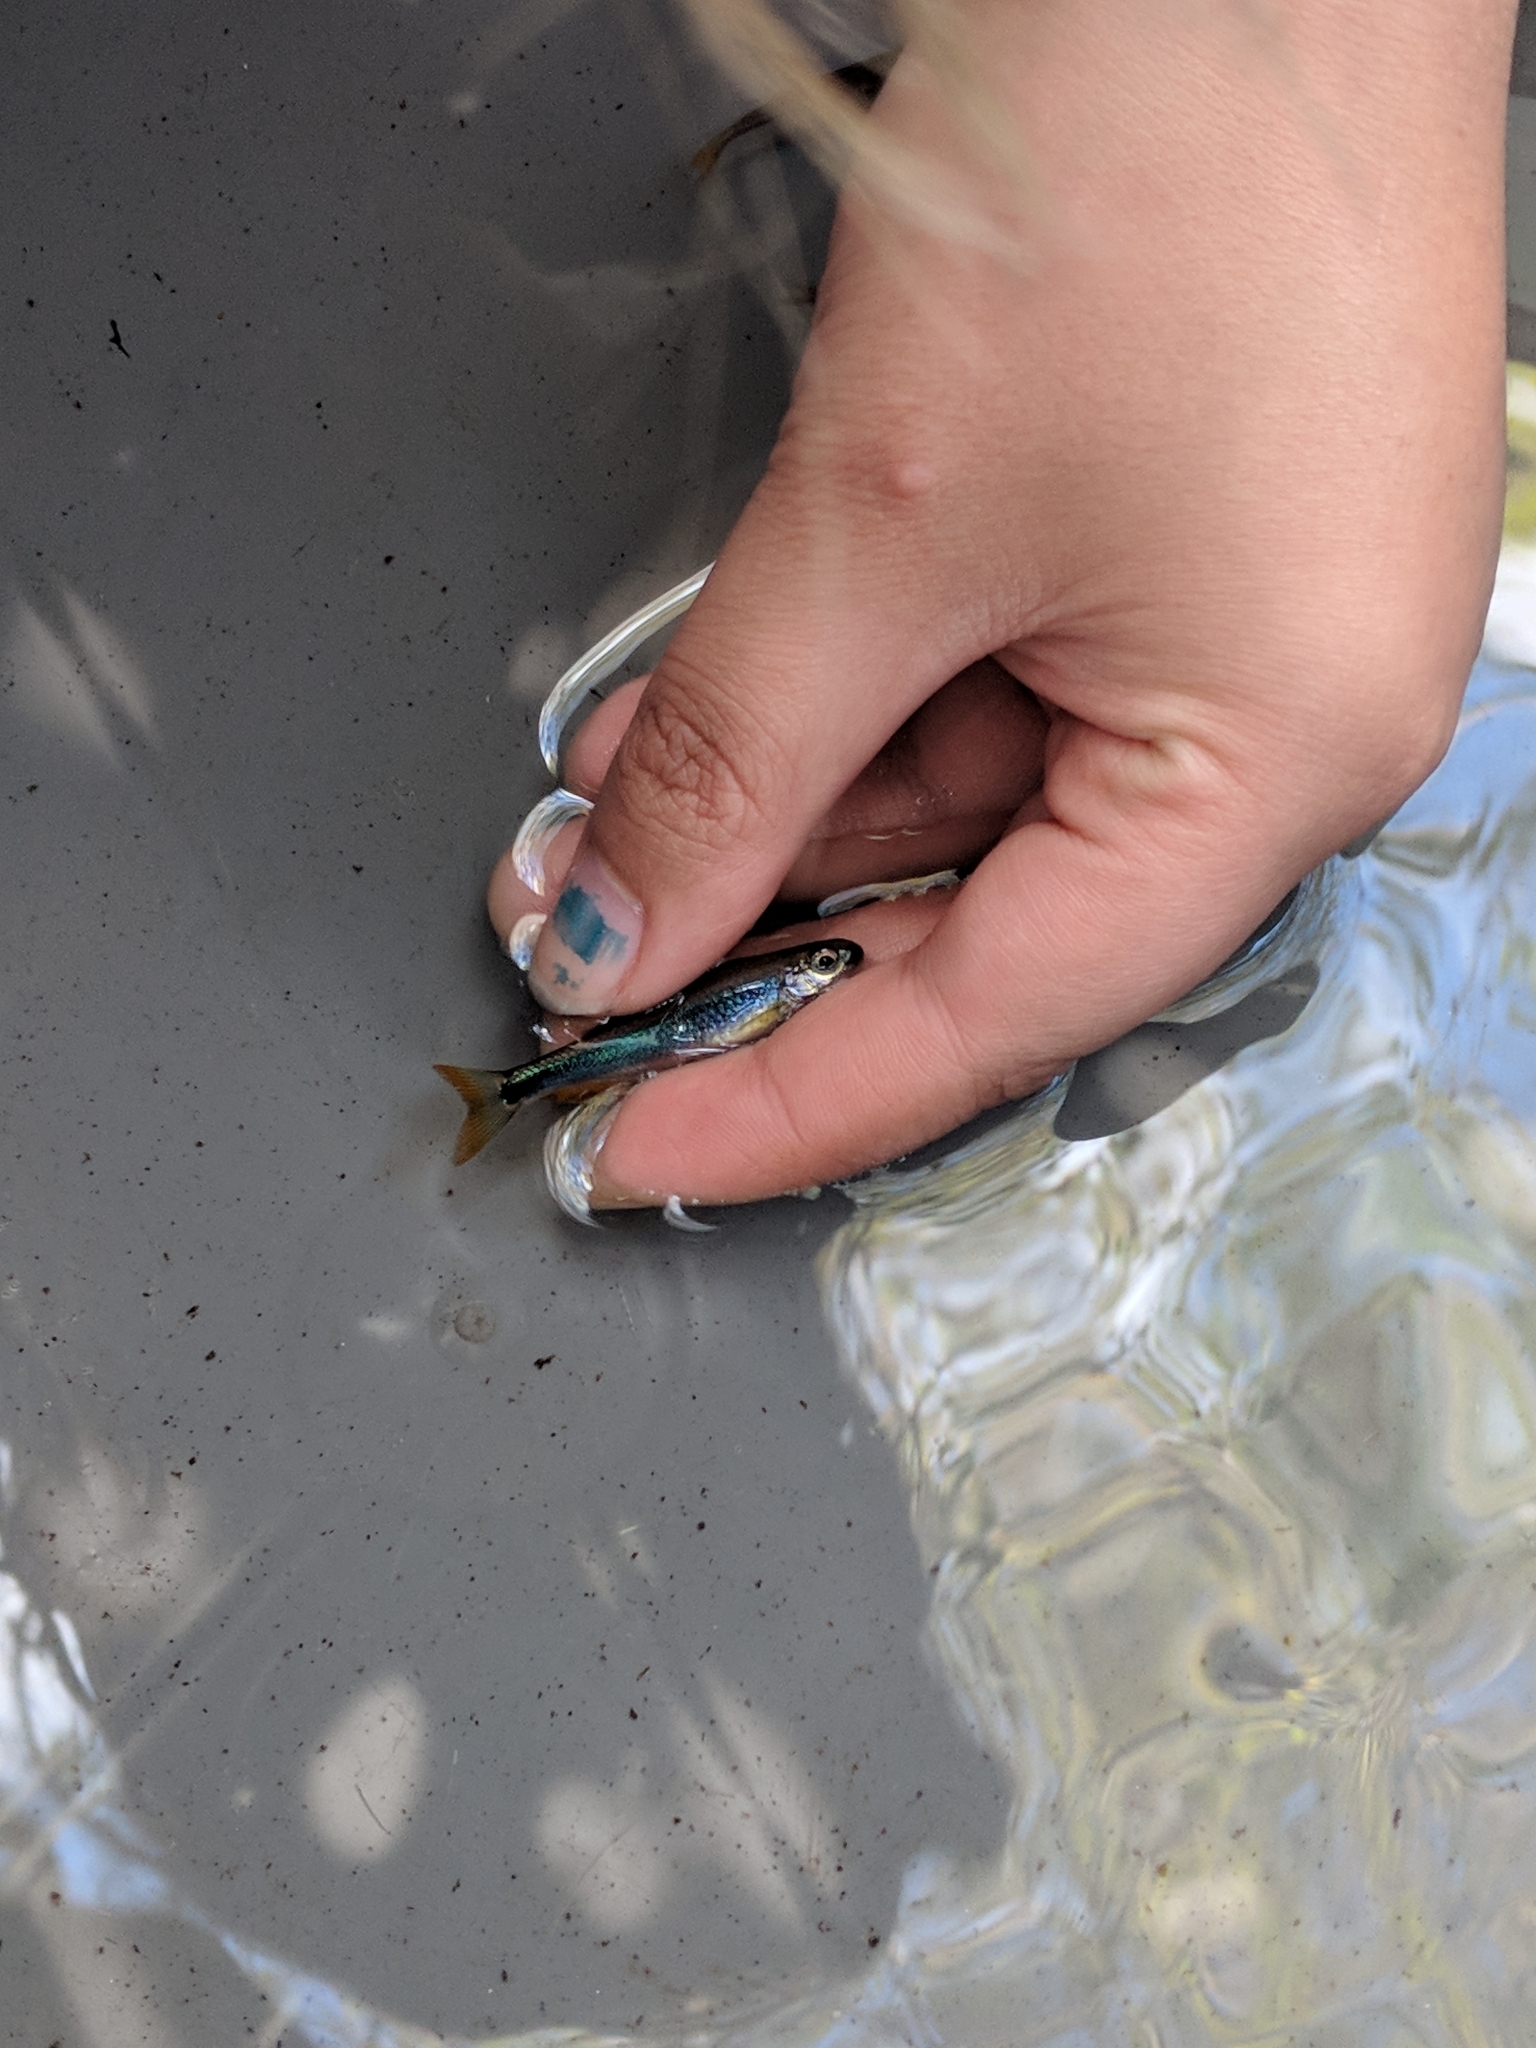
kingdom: Animalia
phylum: Chordata
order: Cypriniformes
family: Cyprinidae
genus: Pteronotropis
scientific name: Pteronotropis metallicus
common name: Metallic shiner
